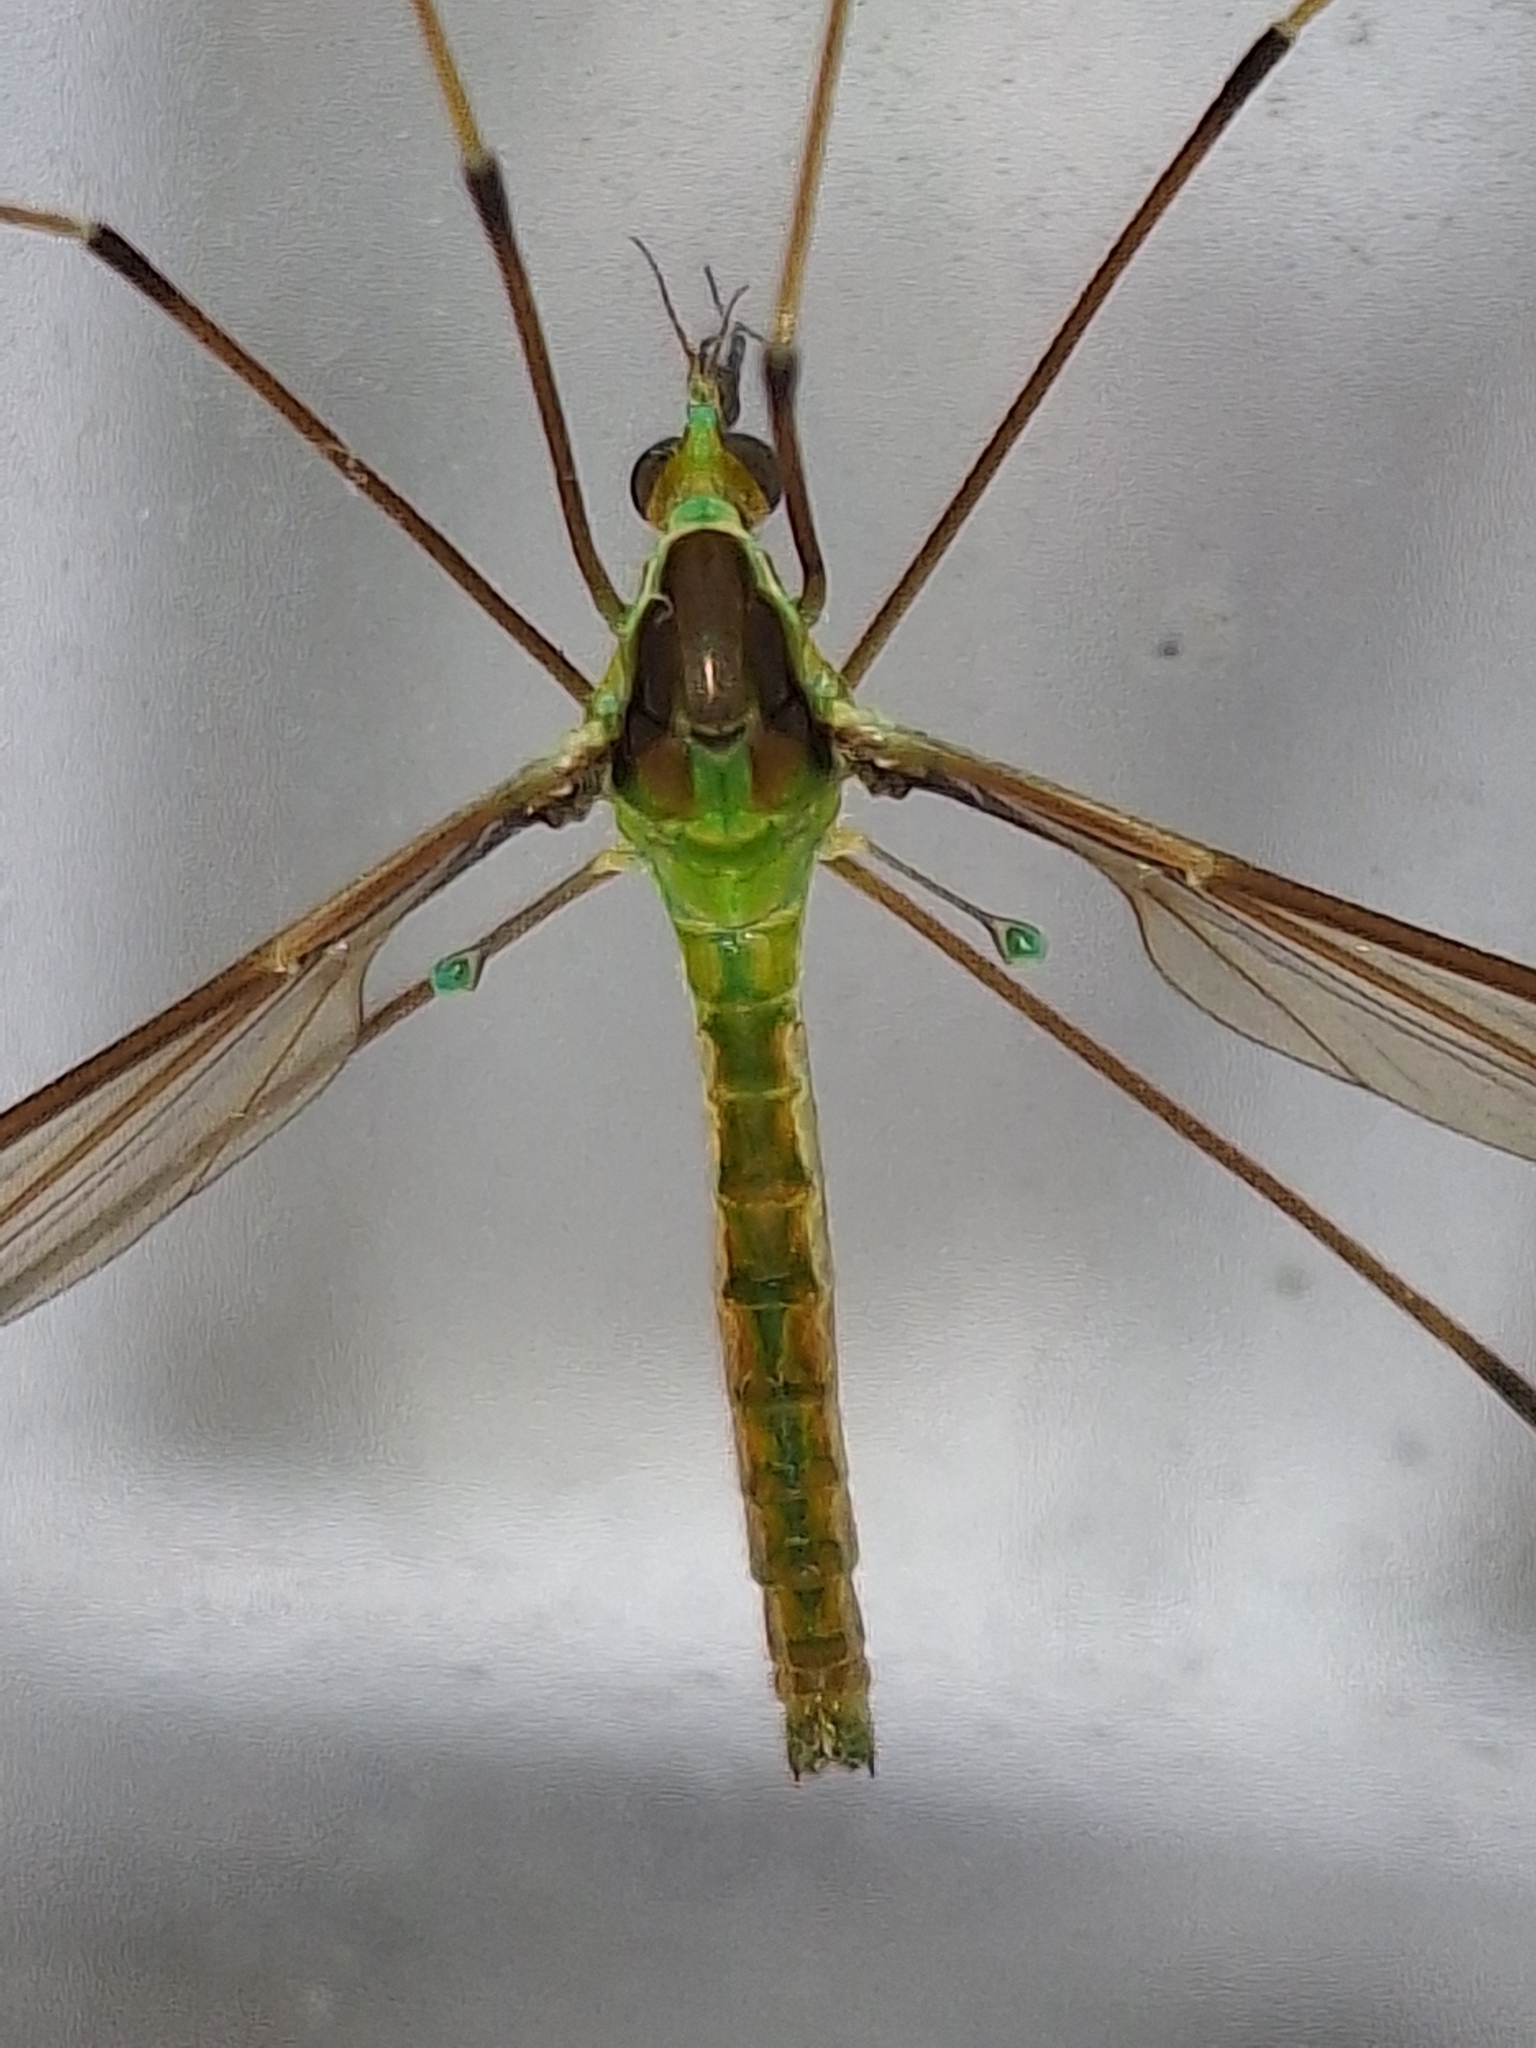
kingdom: Animalia
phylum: Arthropoda
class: Insecta
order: Diptera
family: Tipulidae
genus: Leptotarsus
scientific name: Leptotarsus albistigma
